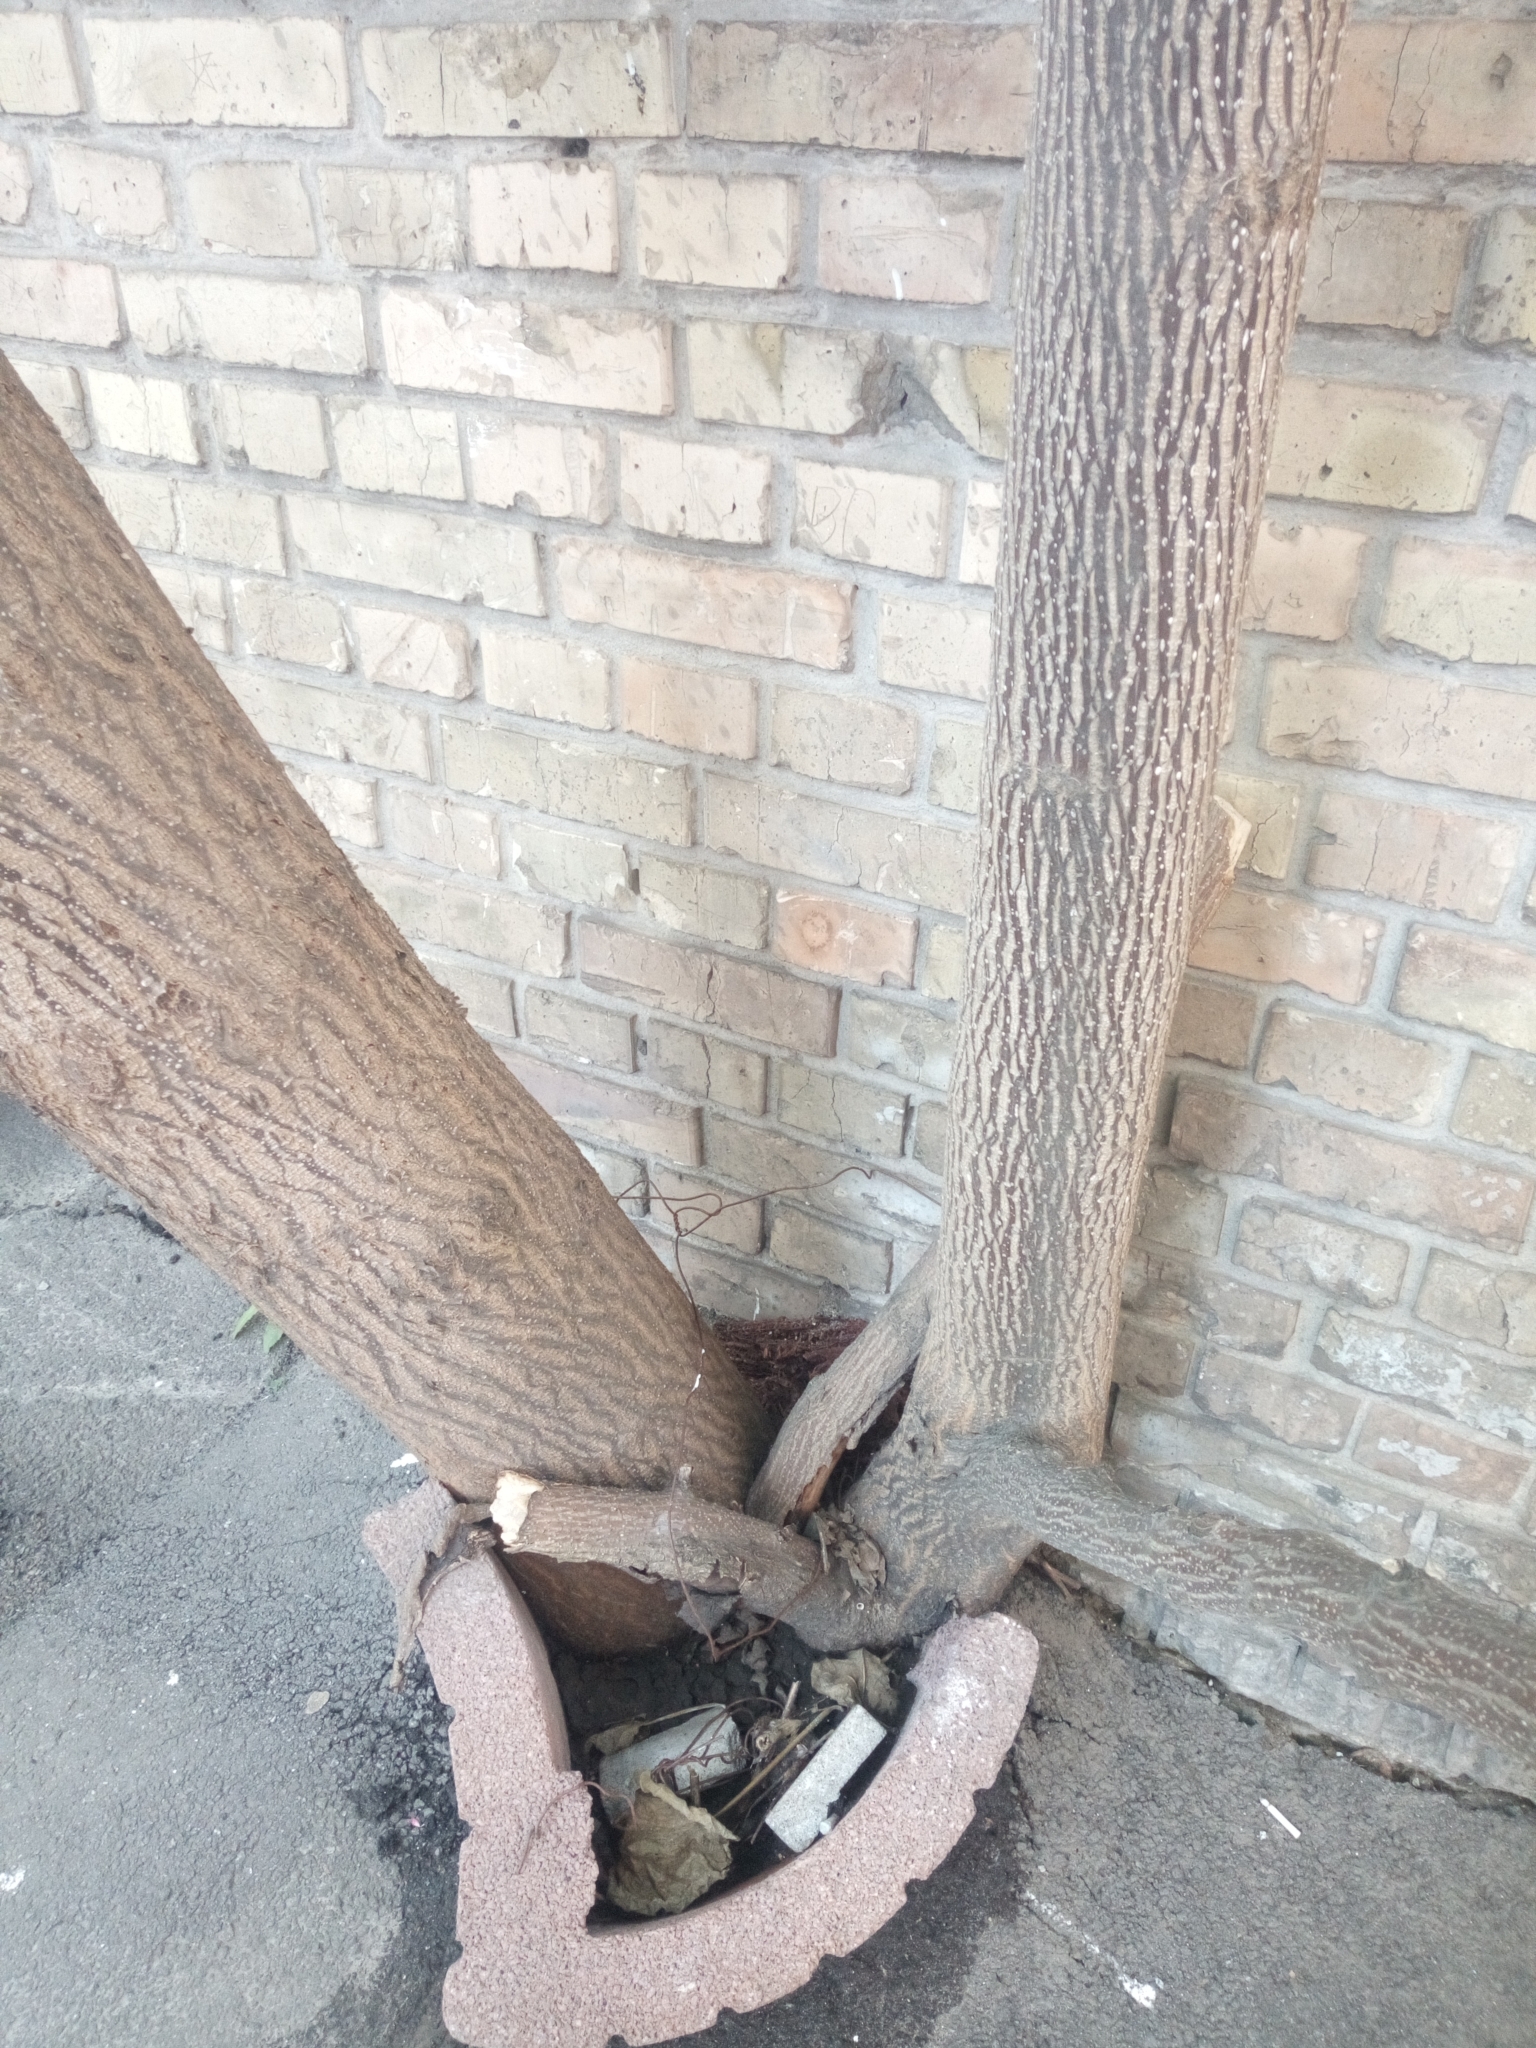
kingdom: Plantae
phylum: Tracheophyta
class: Magnoliopsida
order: Lamiales
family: Paulowniaceae
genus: Paulownia
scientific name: Paulownia tomentosa
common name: Foxglove-tree
